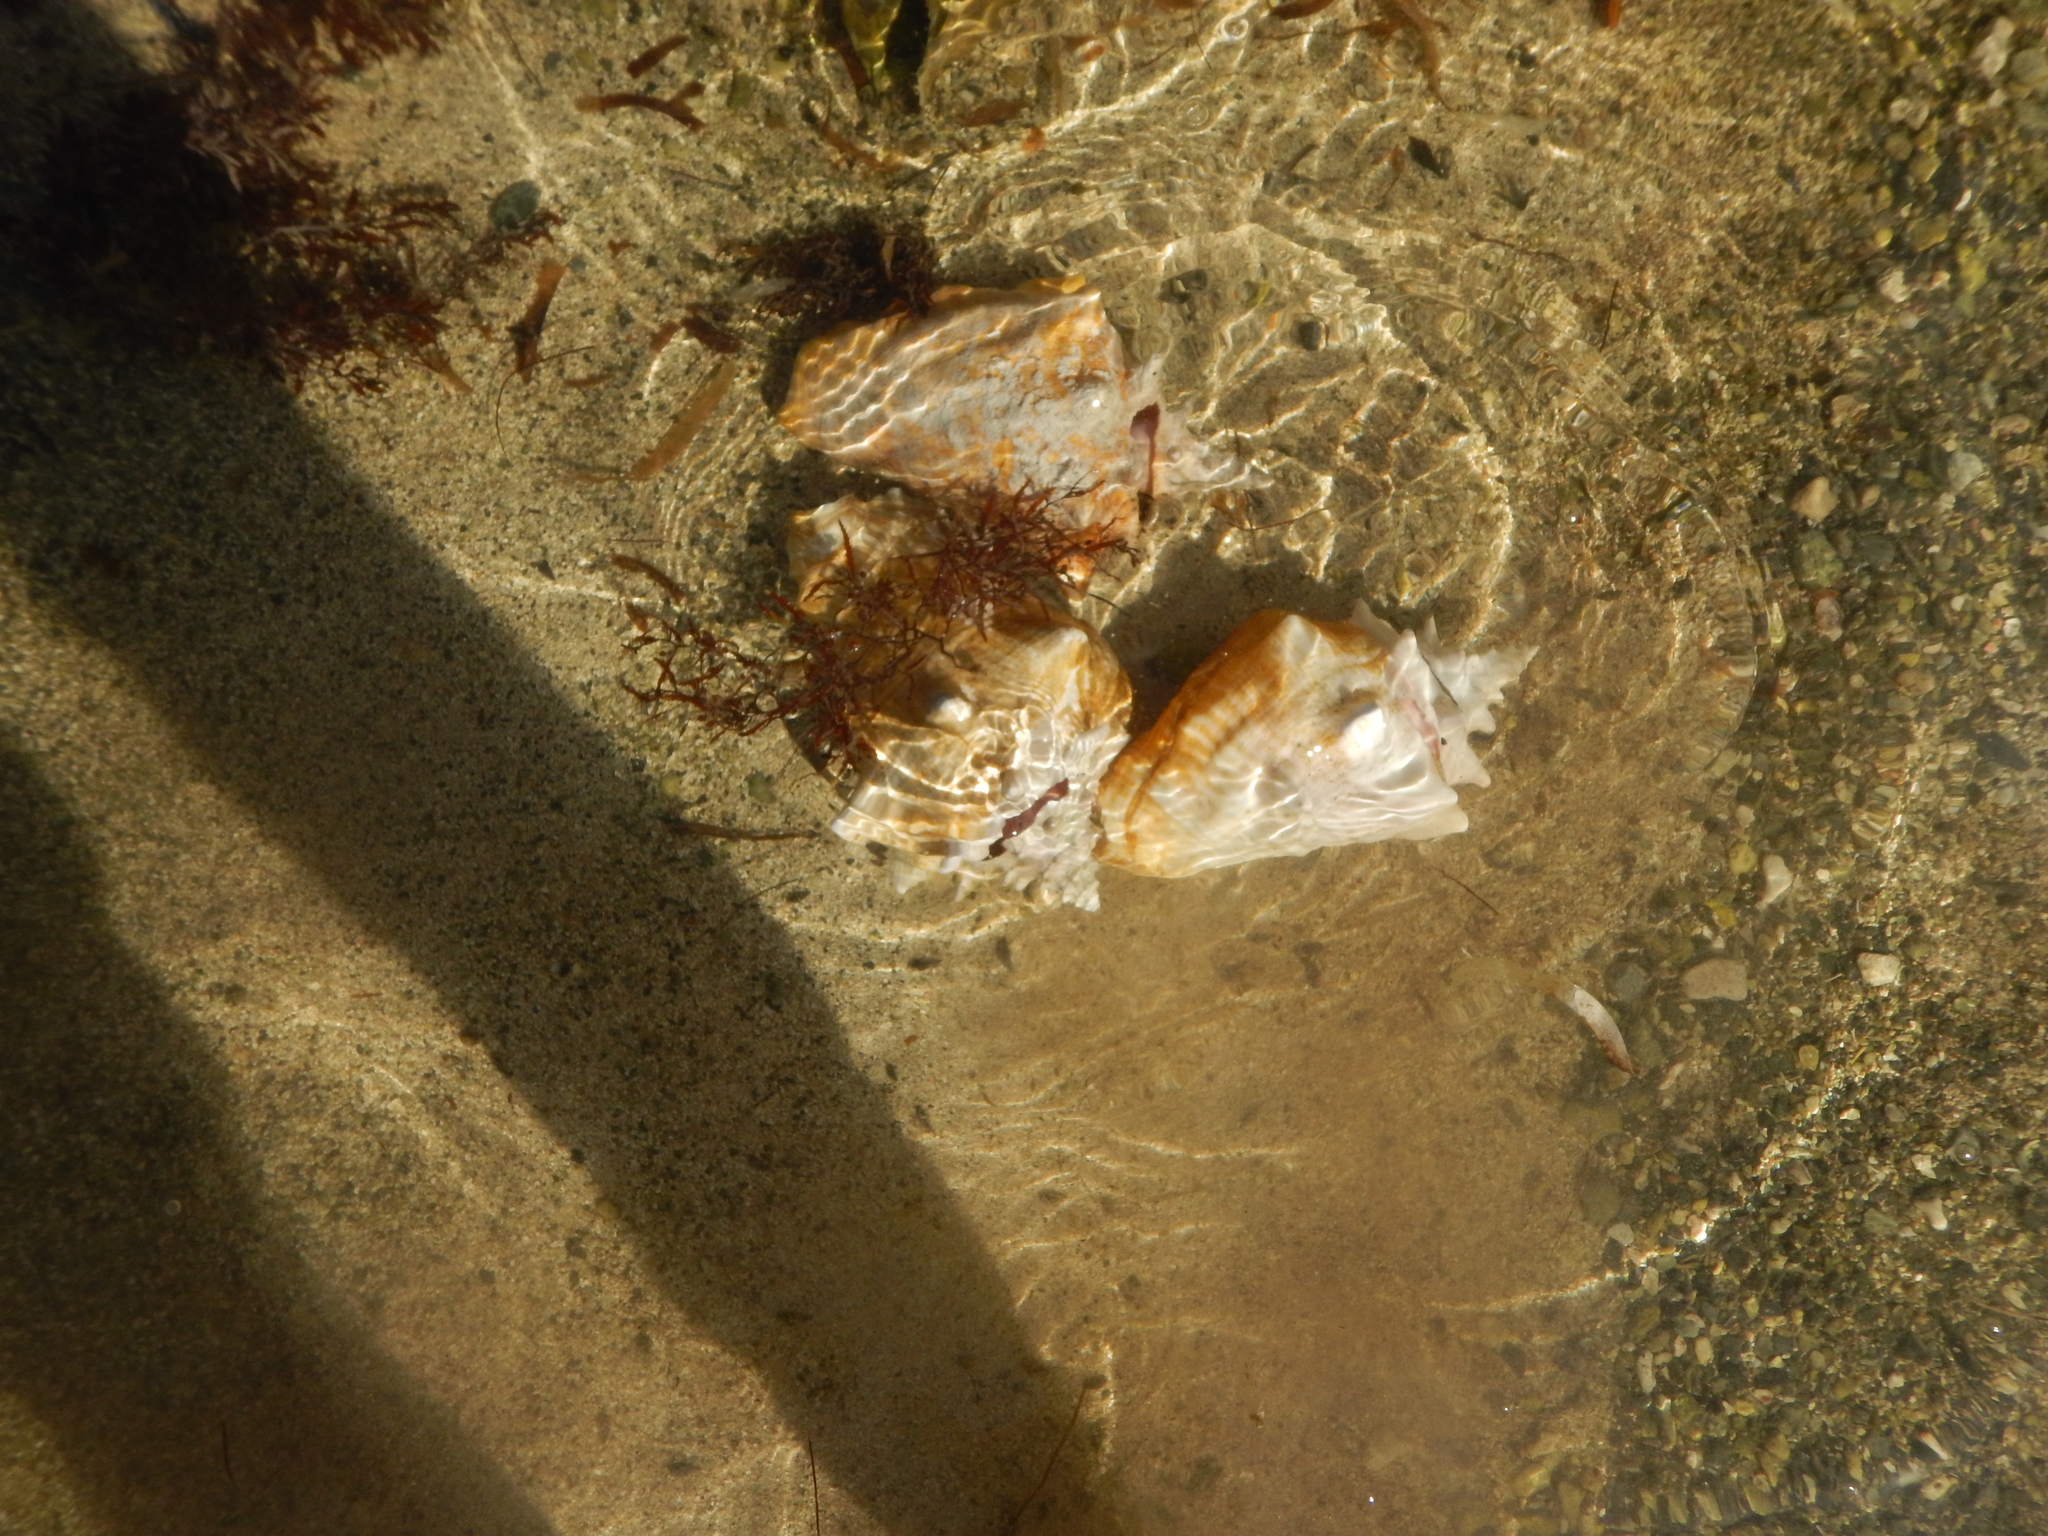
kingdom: Animalia
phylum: Mollusca
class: Gastropoda
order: Littorinimorpha
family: Strombidae
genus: Aliger
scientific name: Aliger gigas
